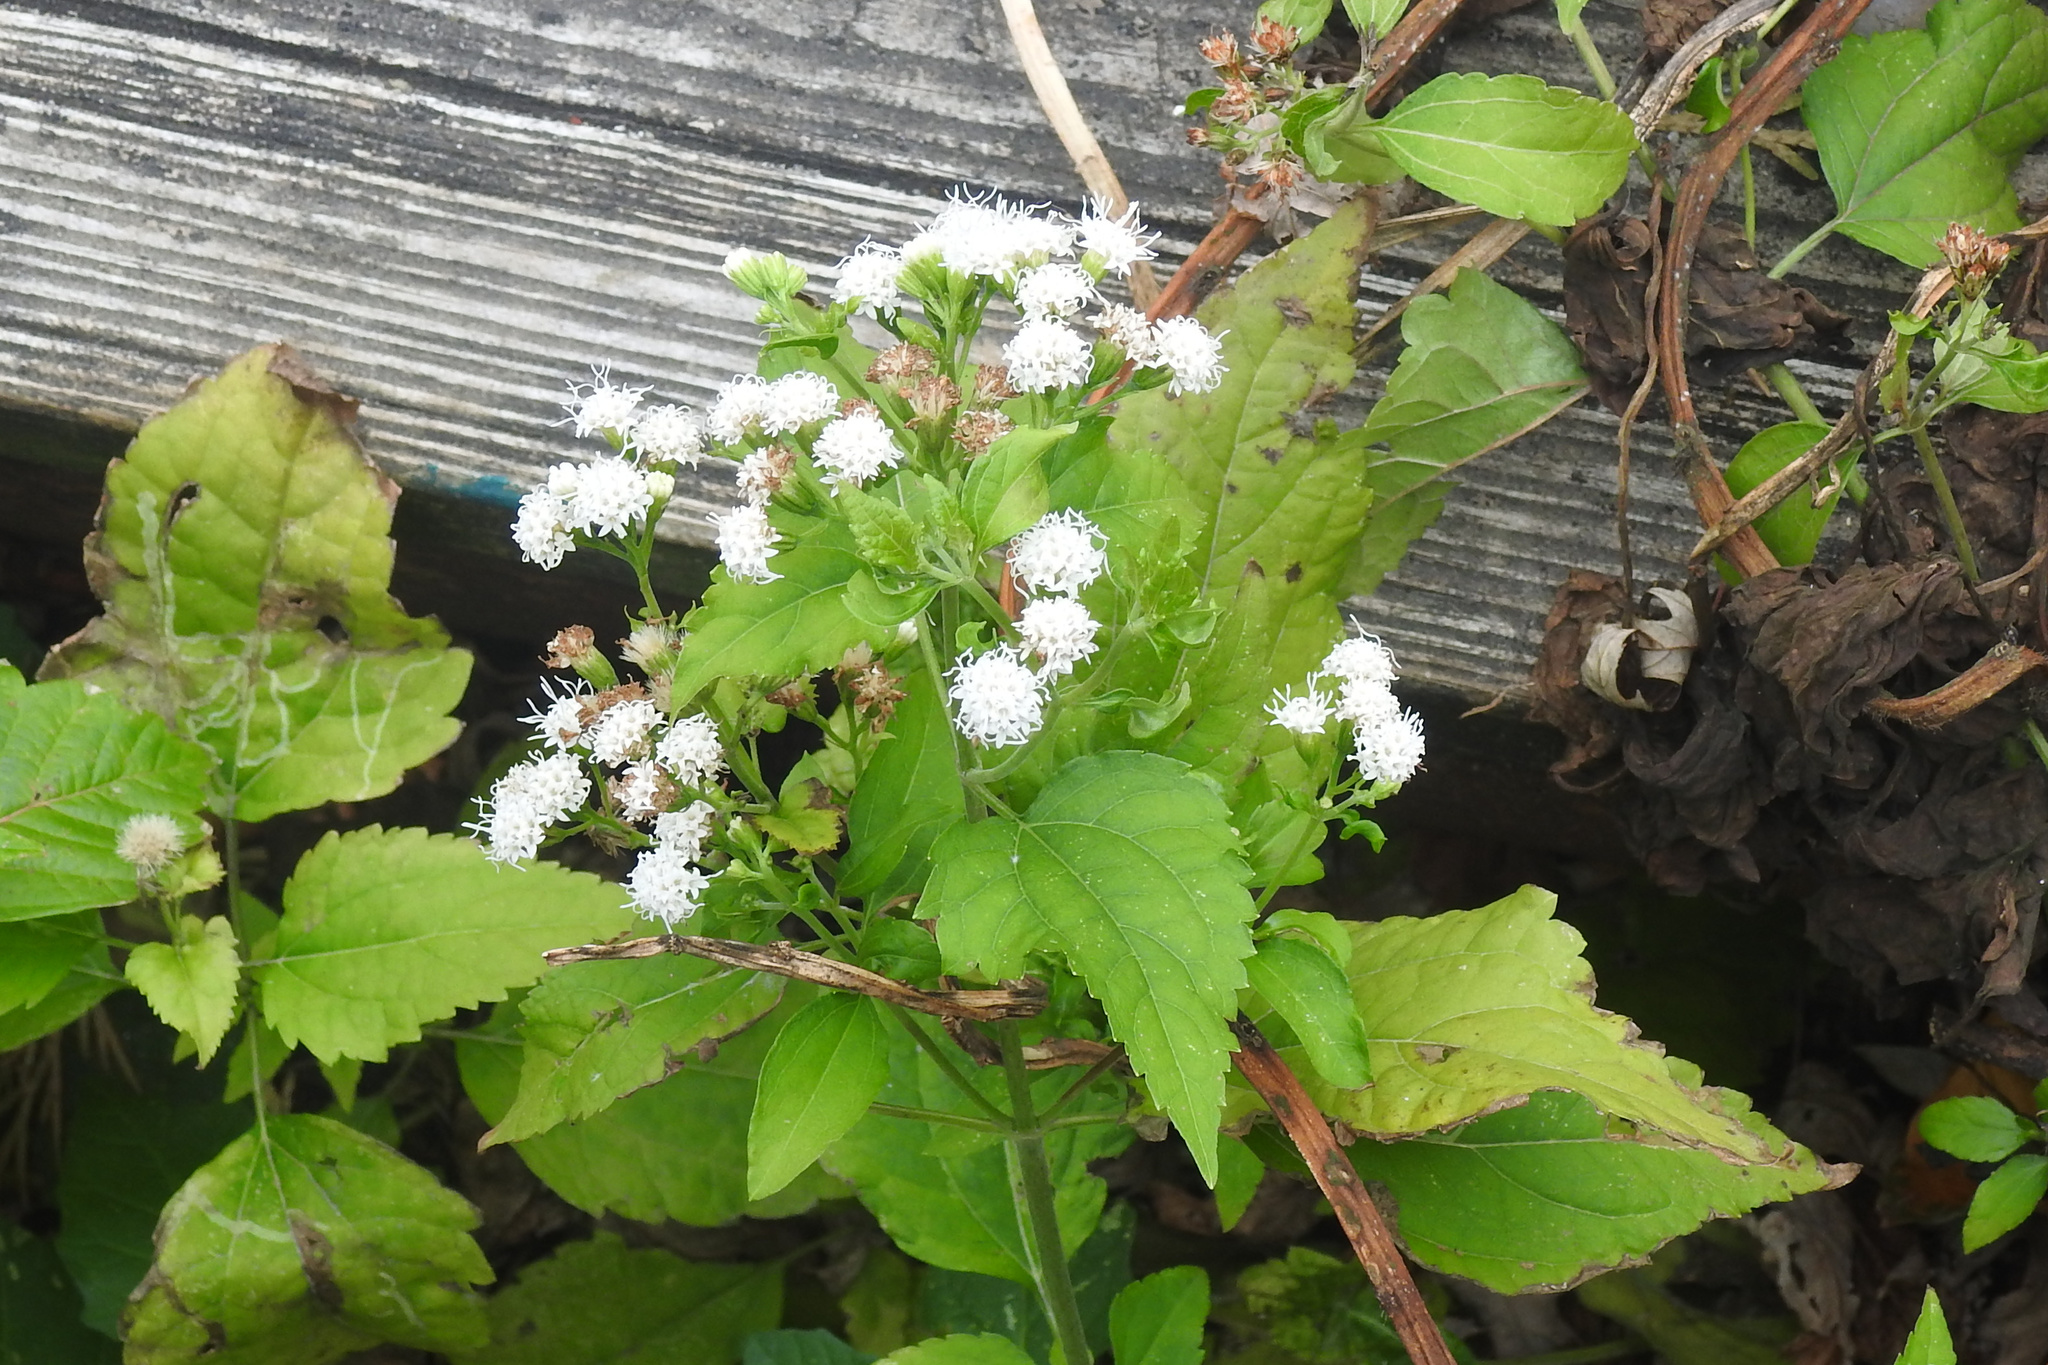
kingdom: Plantae
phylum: Tracheophyta
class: Magnoliopsida
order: Asterales
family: Asteraceae
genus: Ageratina
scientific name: Ageratina altissima
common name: White snakeroot
